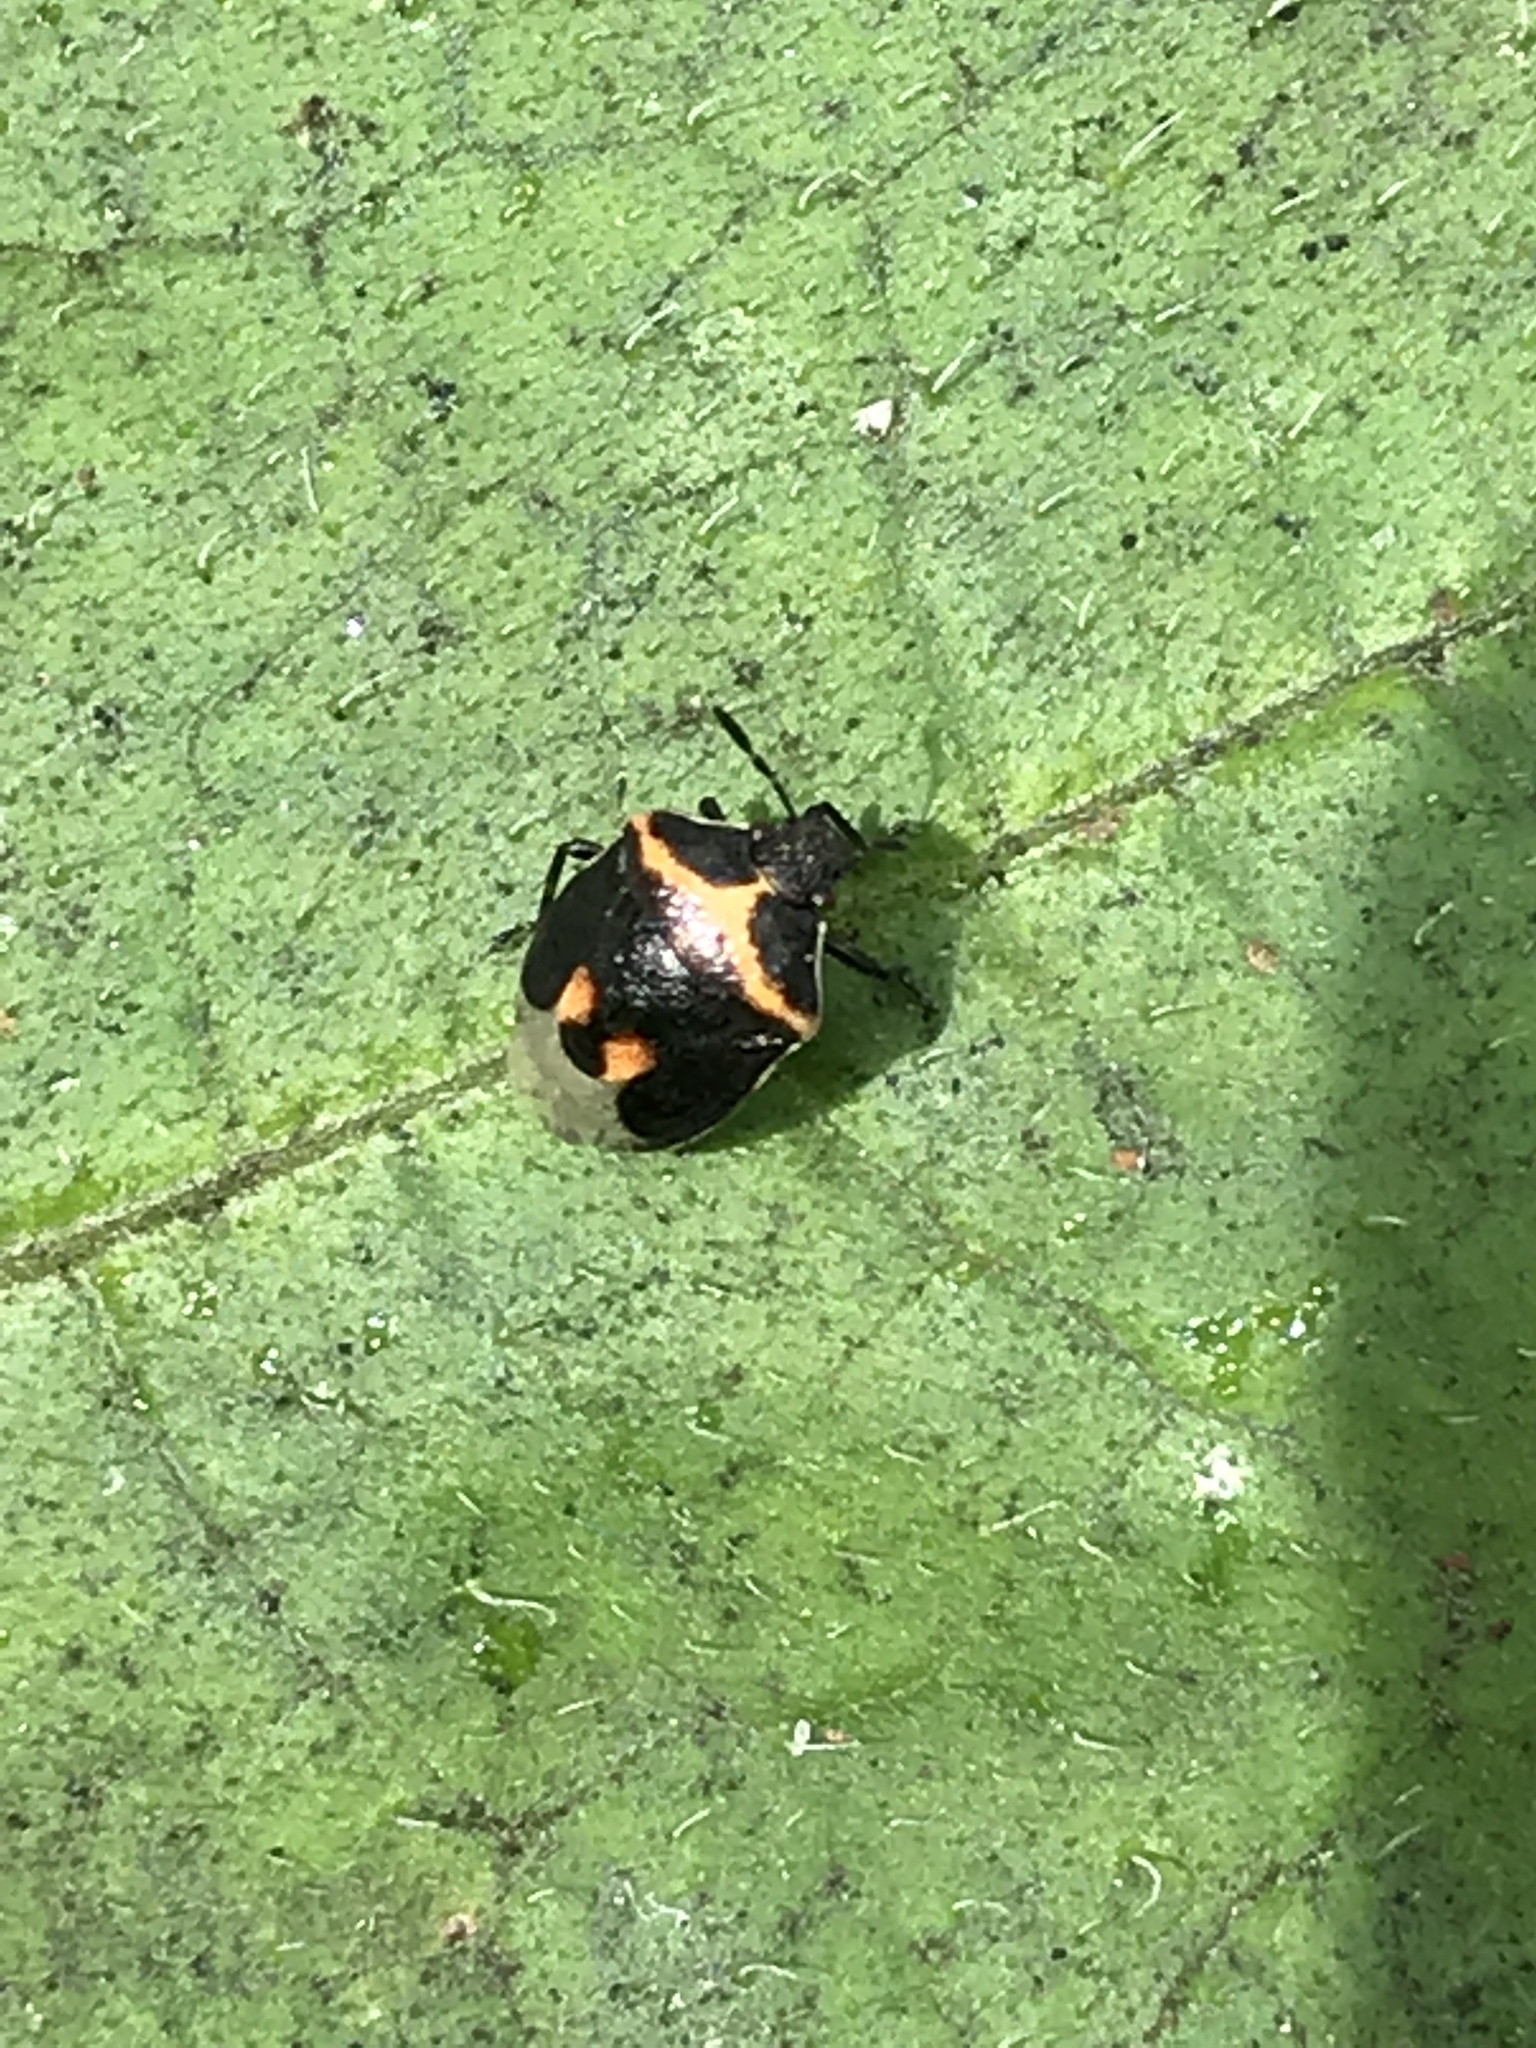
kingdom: Animalia
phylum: Arthropoda
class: Insecta
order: Hemiptera
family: Pentatomidae
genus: Cosmopepla
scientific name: Cosmopepla lintneriana
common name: Twice-stabbed stink bug
